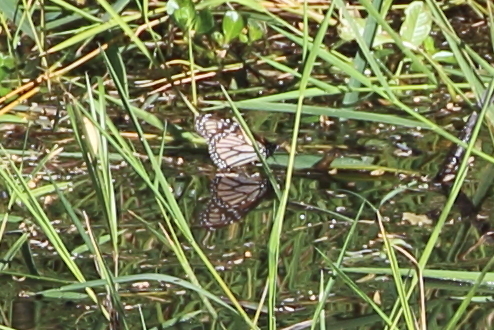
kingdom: Animalia
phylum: Arthropoda
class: Insecta
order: Lepidoptera
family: Nymphalidae
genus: Danaus
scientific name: Danaus plexippus
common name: Monarch
